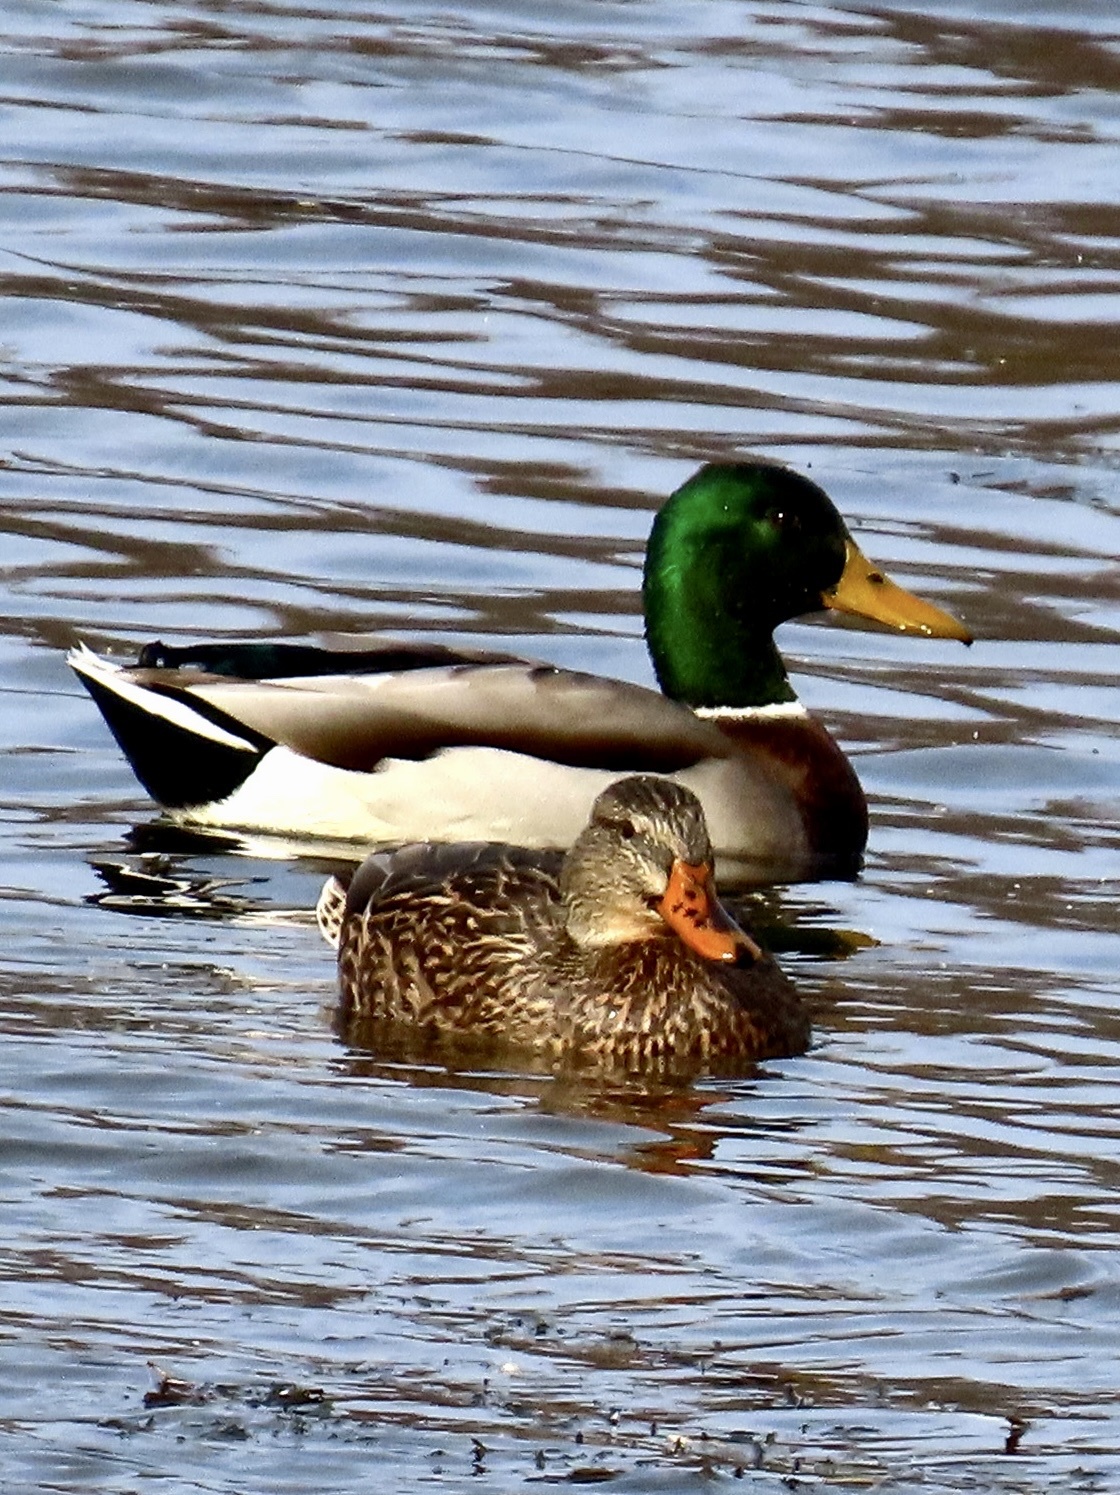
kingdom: Animalia
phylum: Chordata
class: Aves
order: Anseriformes
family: Anatidae
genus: Anas
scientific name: Anas platyrhynchos
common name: Mallard
